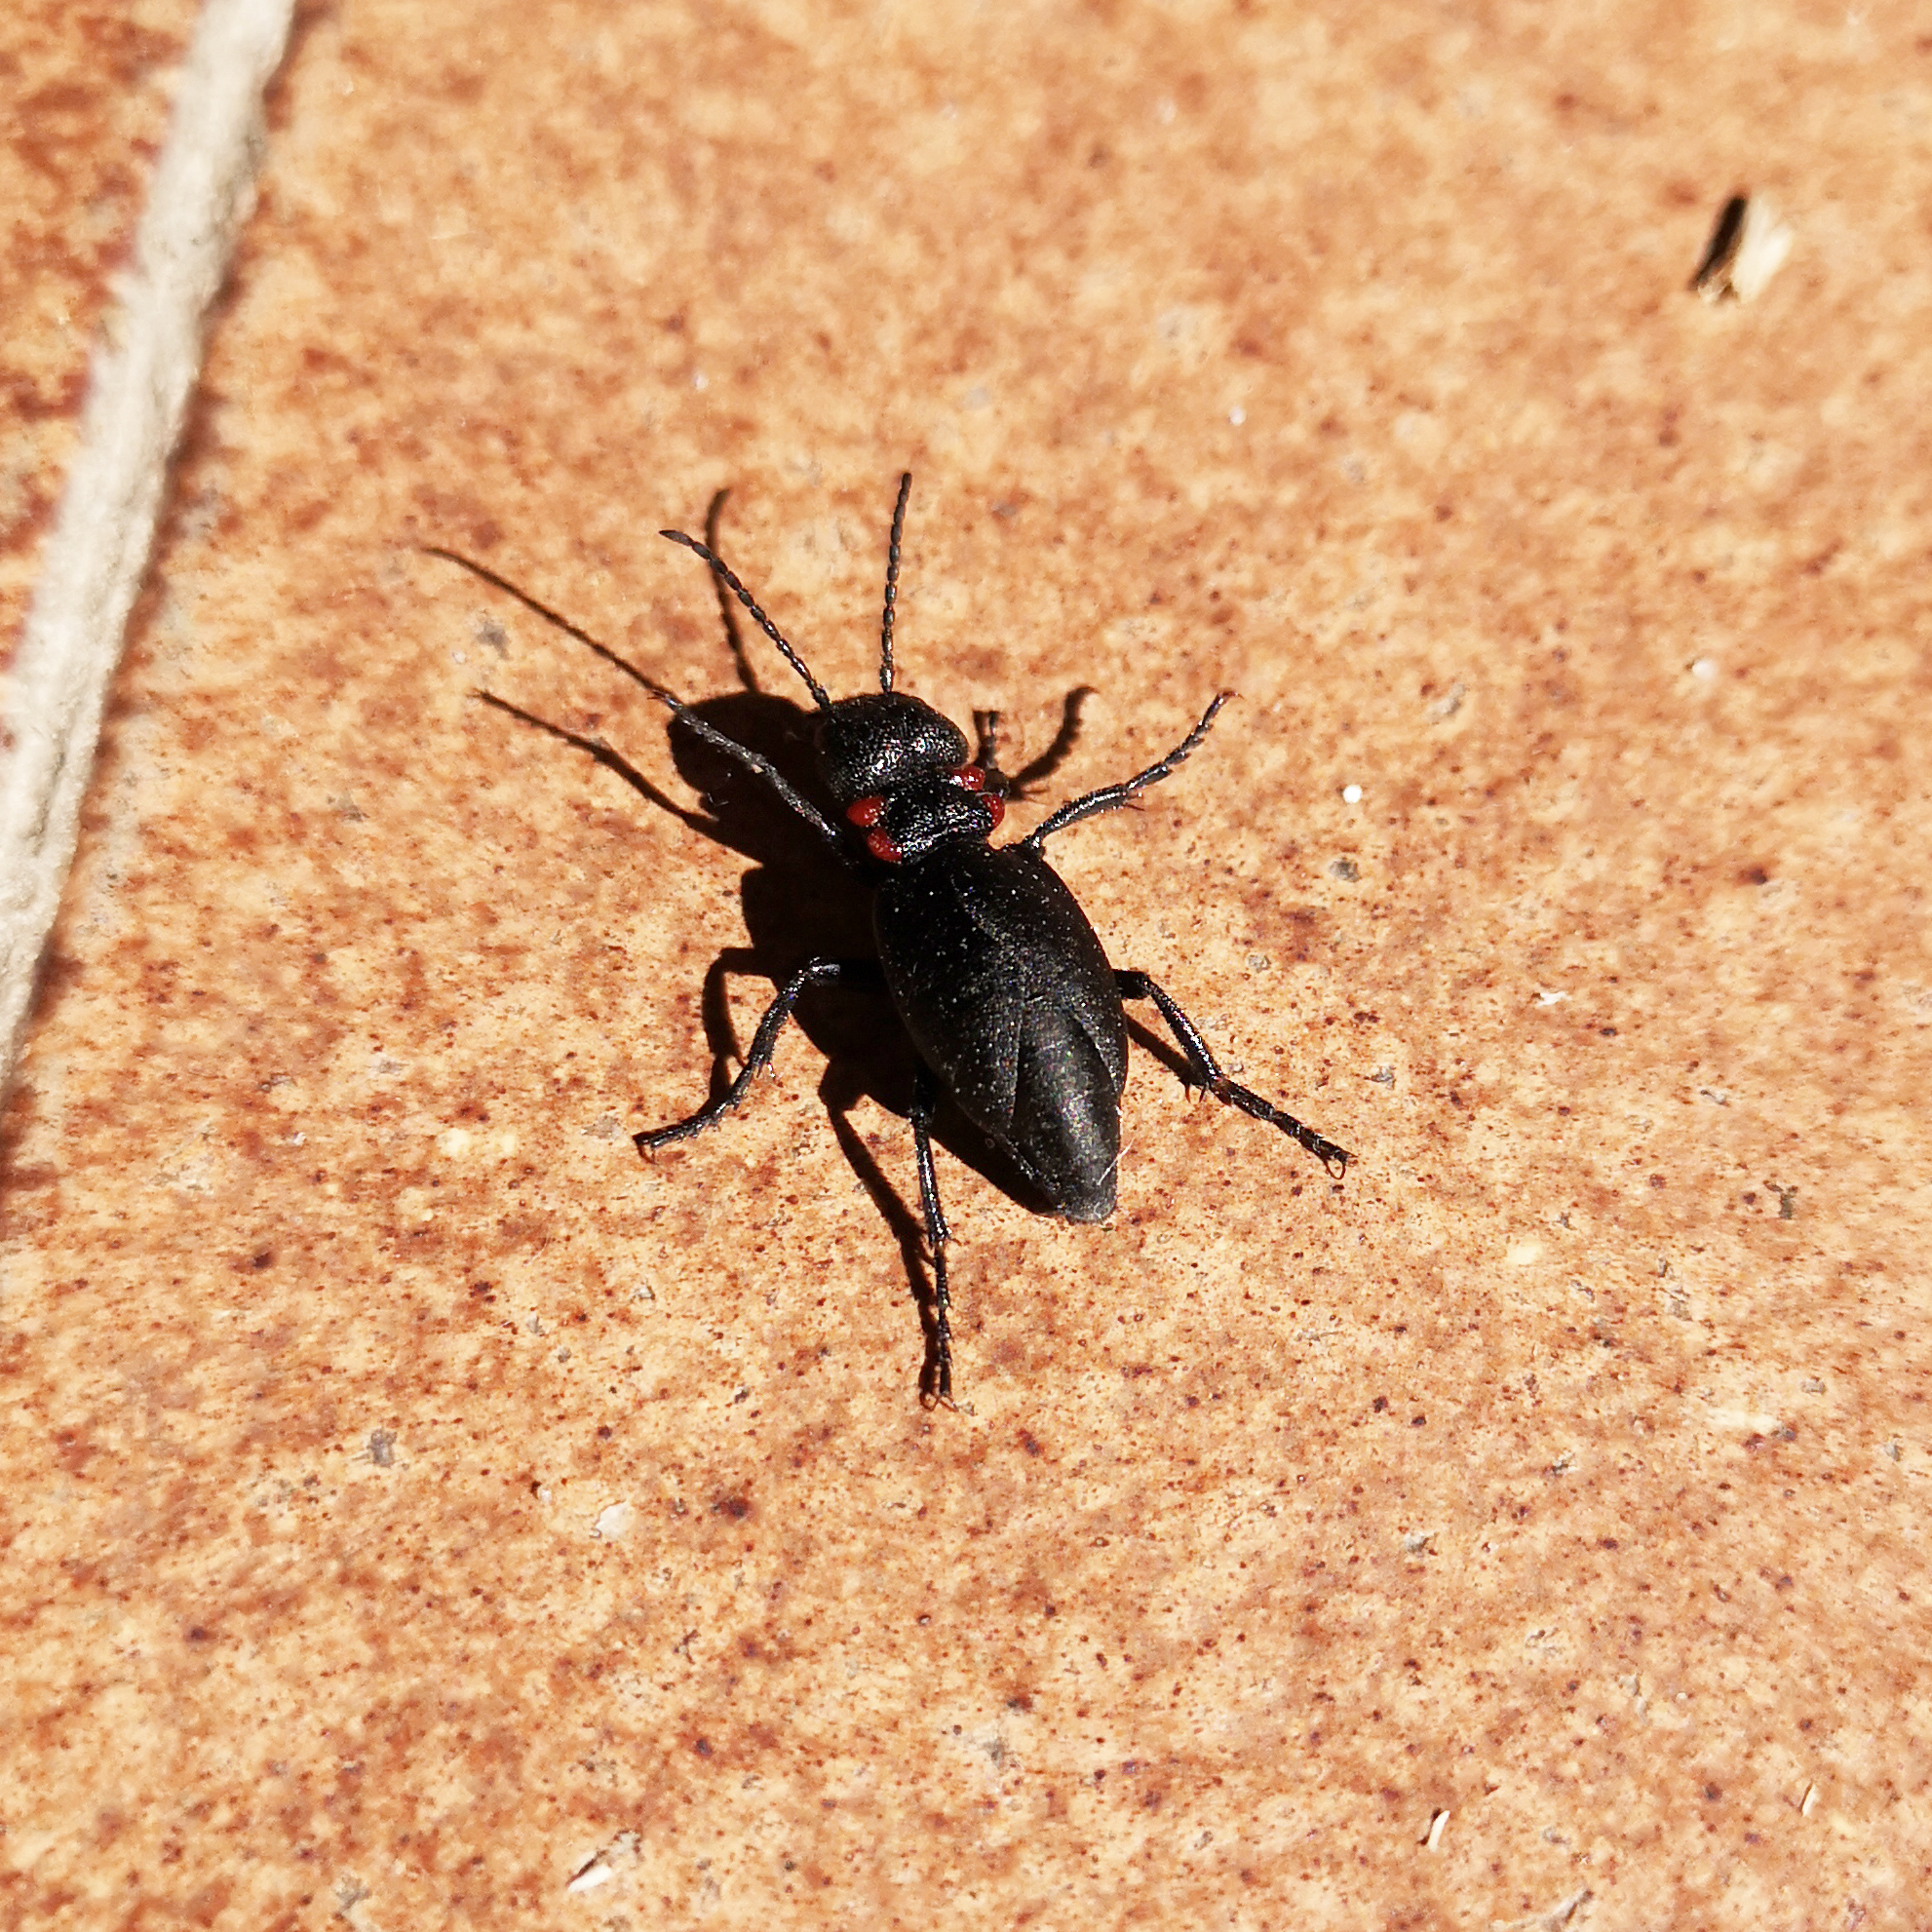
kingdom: Animalia
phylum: Arthropoda
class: Insecta
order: Coleoptera
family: Meloidae
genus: Physomeloe
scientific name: Physomeloe corallifer
